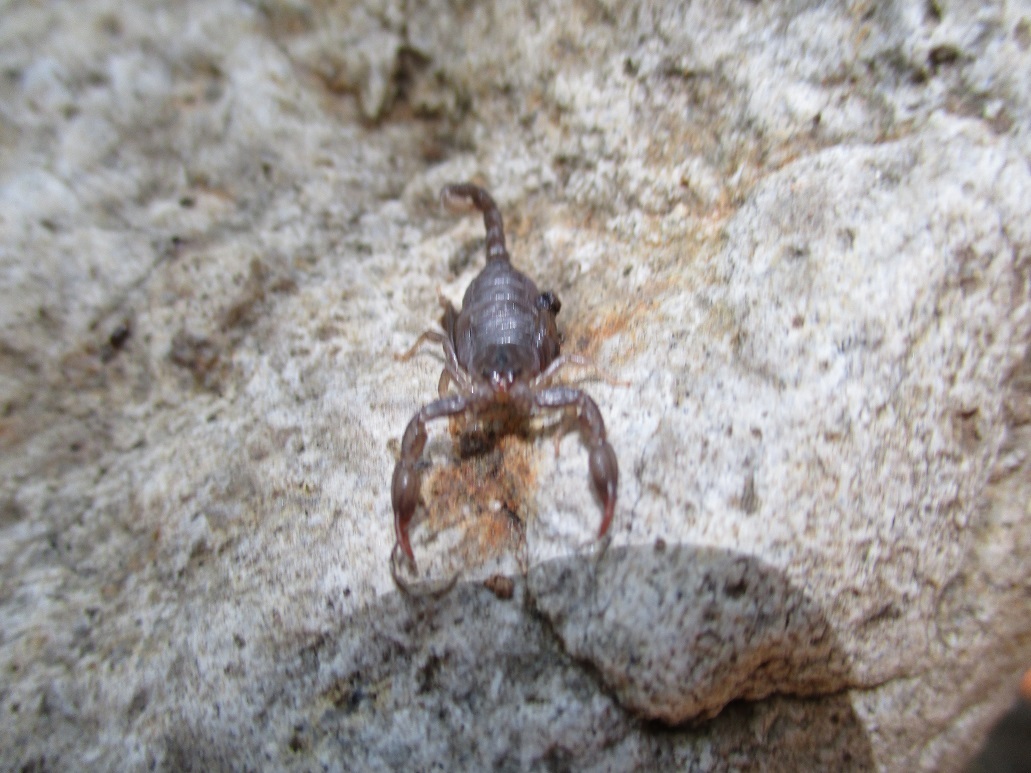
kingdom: Animalia
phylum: Arthropoda
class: Arachnida
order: Scorpiones
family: Chactidae
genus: Uroctonus
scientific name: Uroctonus mordax
